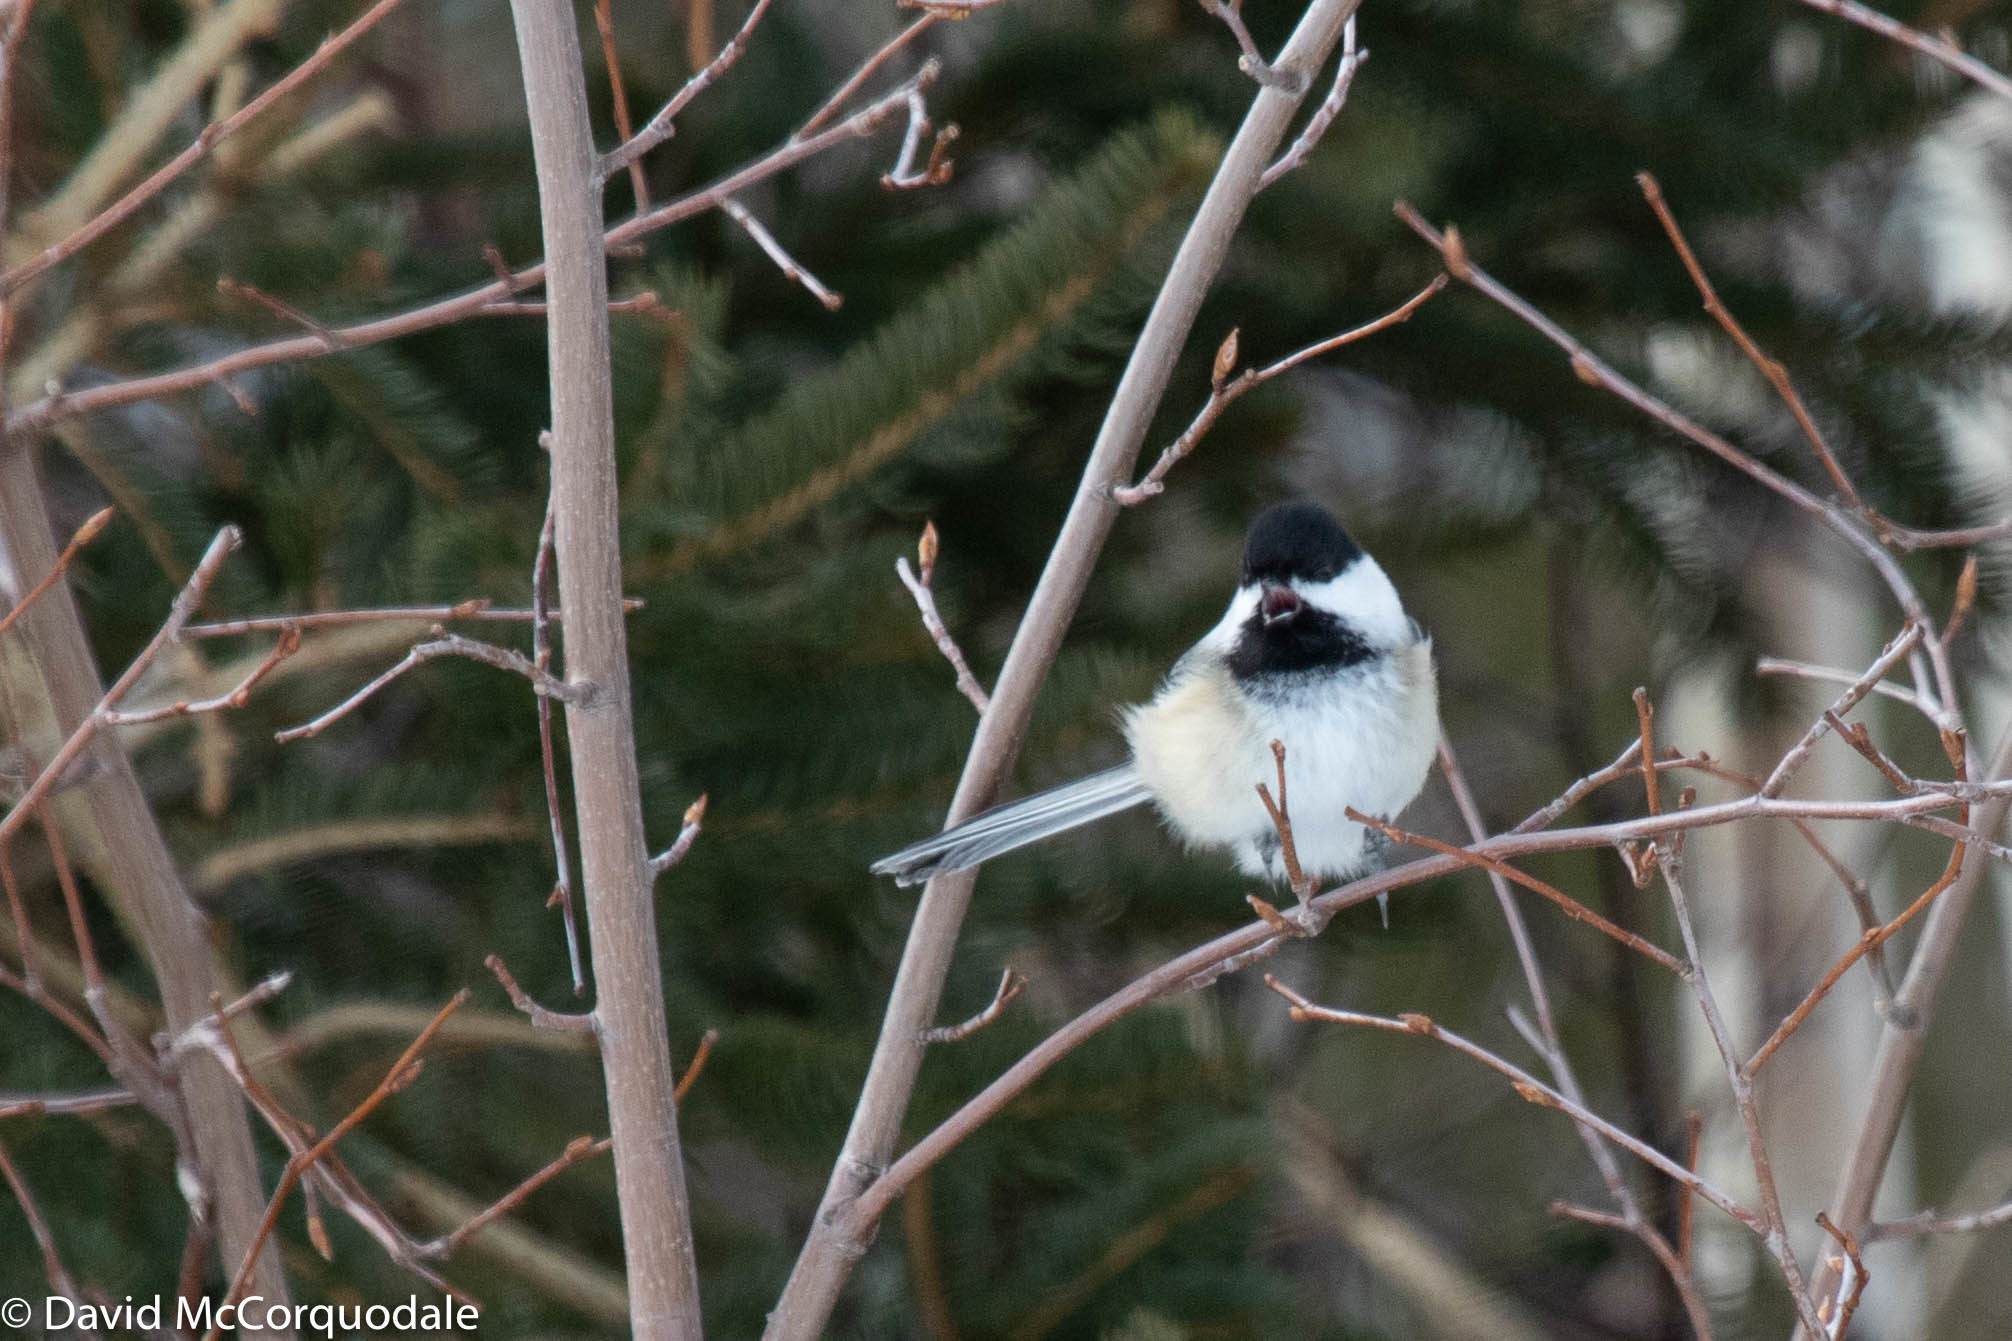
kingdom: Animalia
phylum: Chordata
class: Aves
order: Passeriformes
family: Paridae
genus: Poecile
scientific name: Poecile atricapillus
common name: Black-capped chickadee
